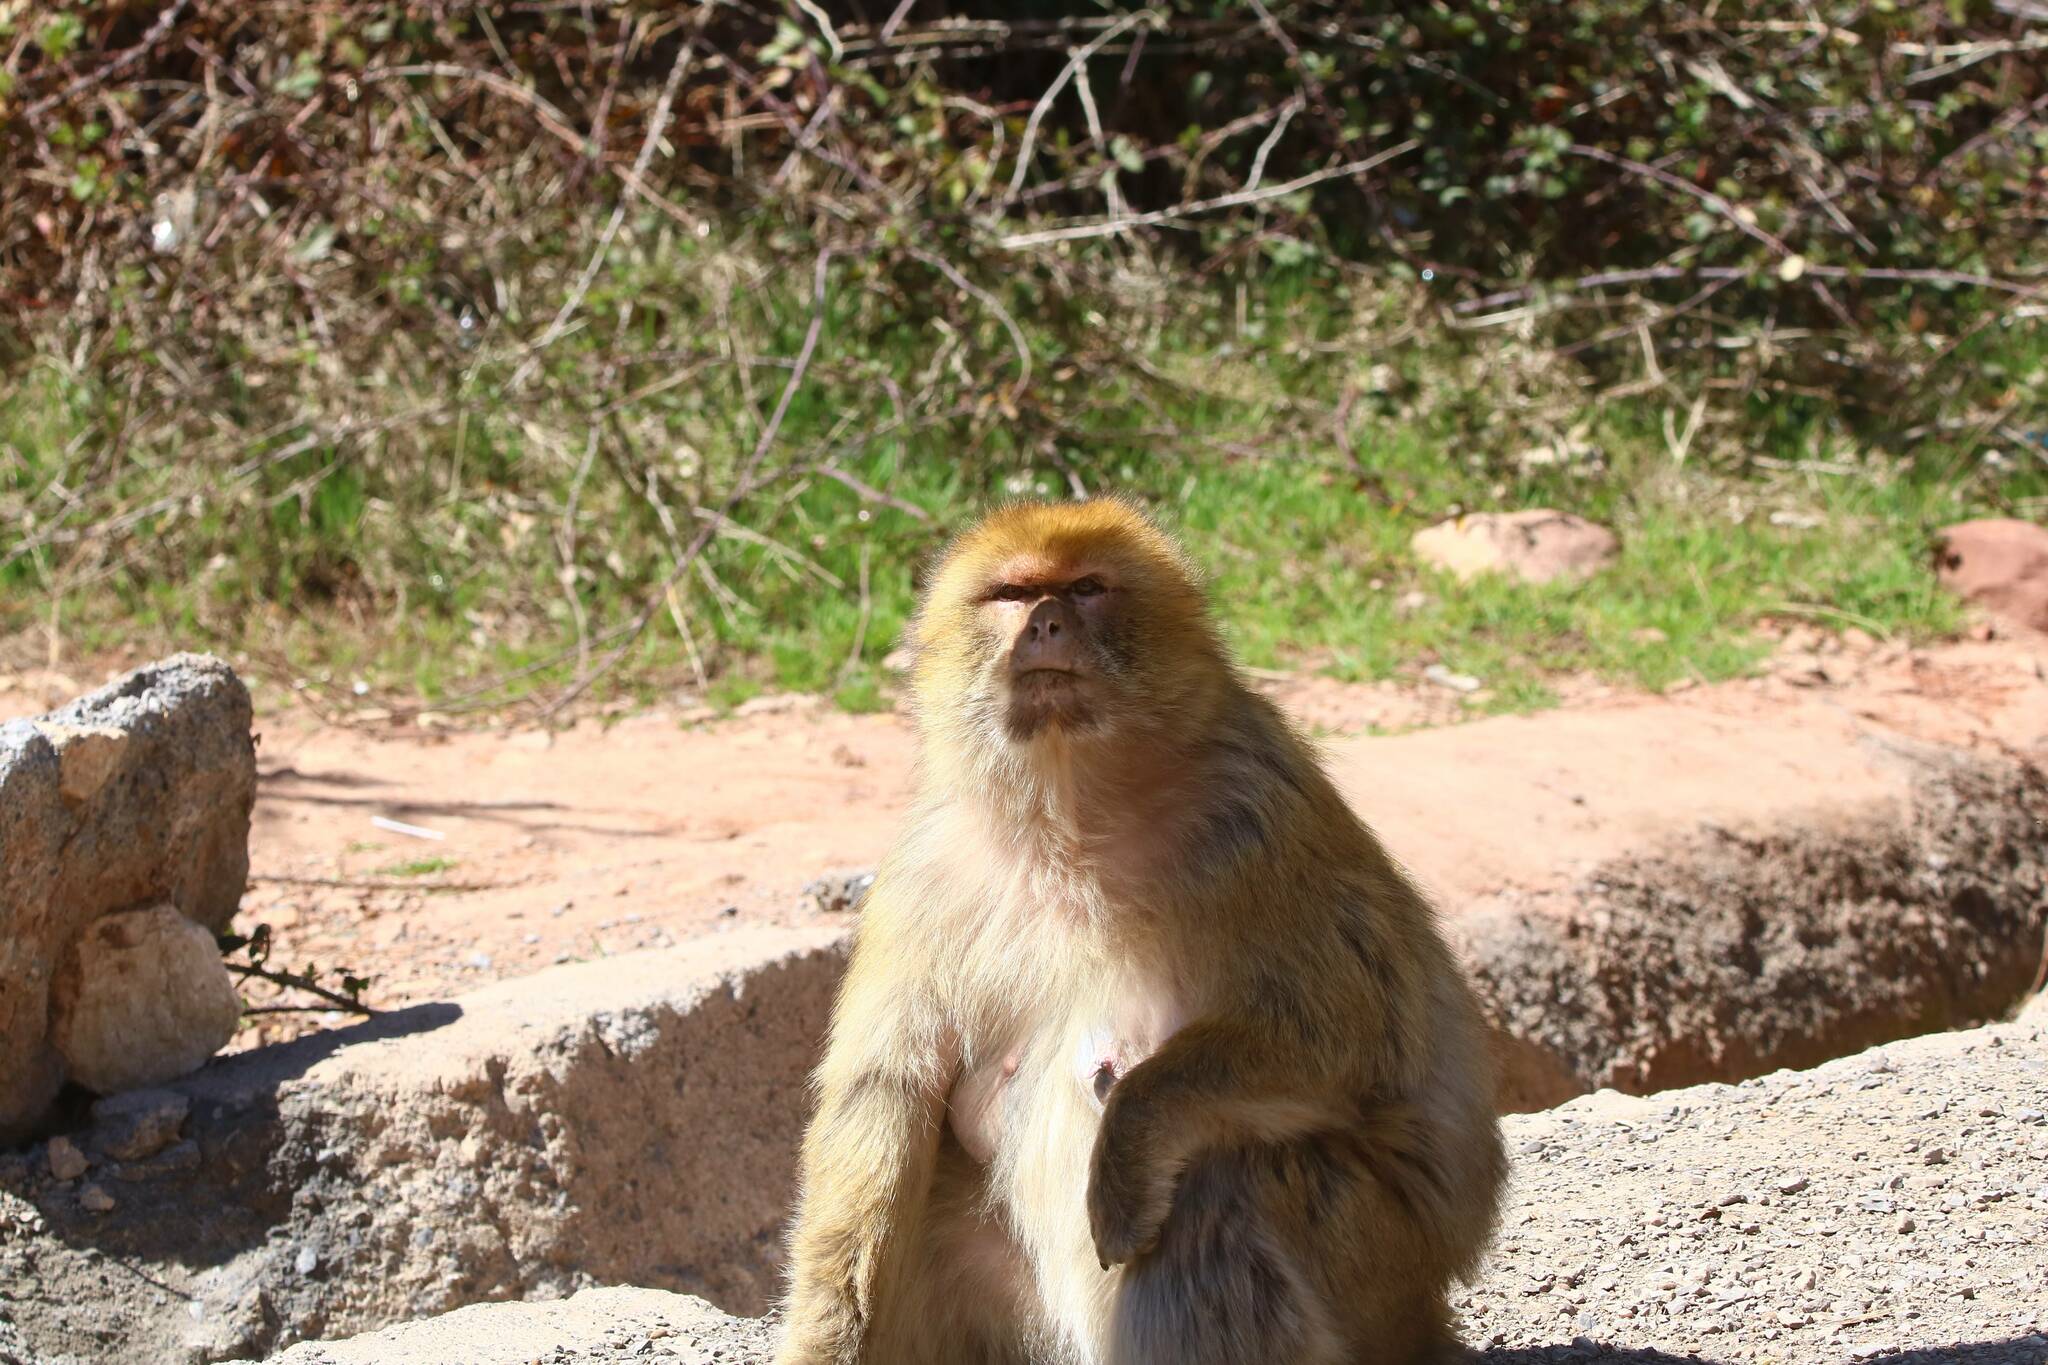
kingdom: Animalia
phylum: Chordata
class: Mammalia
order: Primates
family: Cercopithecidae
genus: Macaca
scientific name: Macaca sylvanus
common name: Barbary macaque
